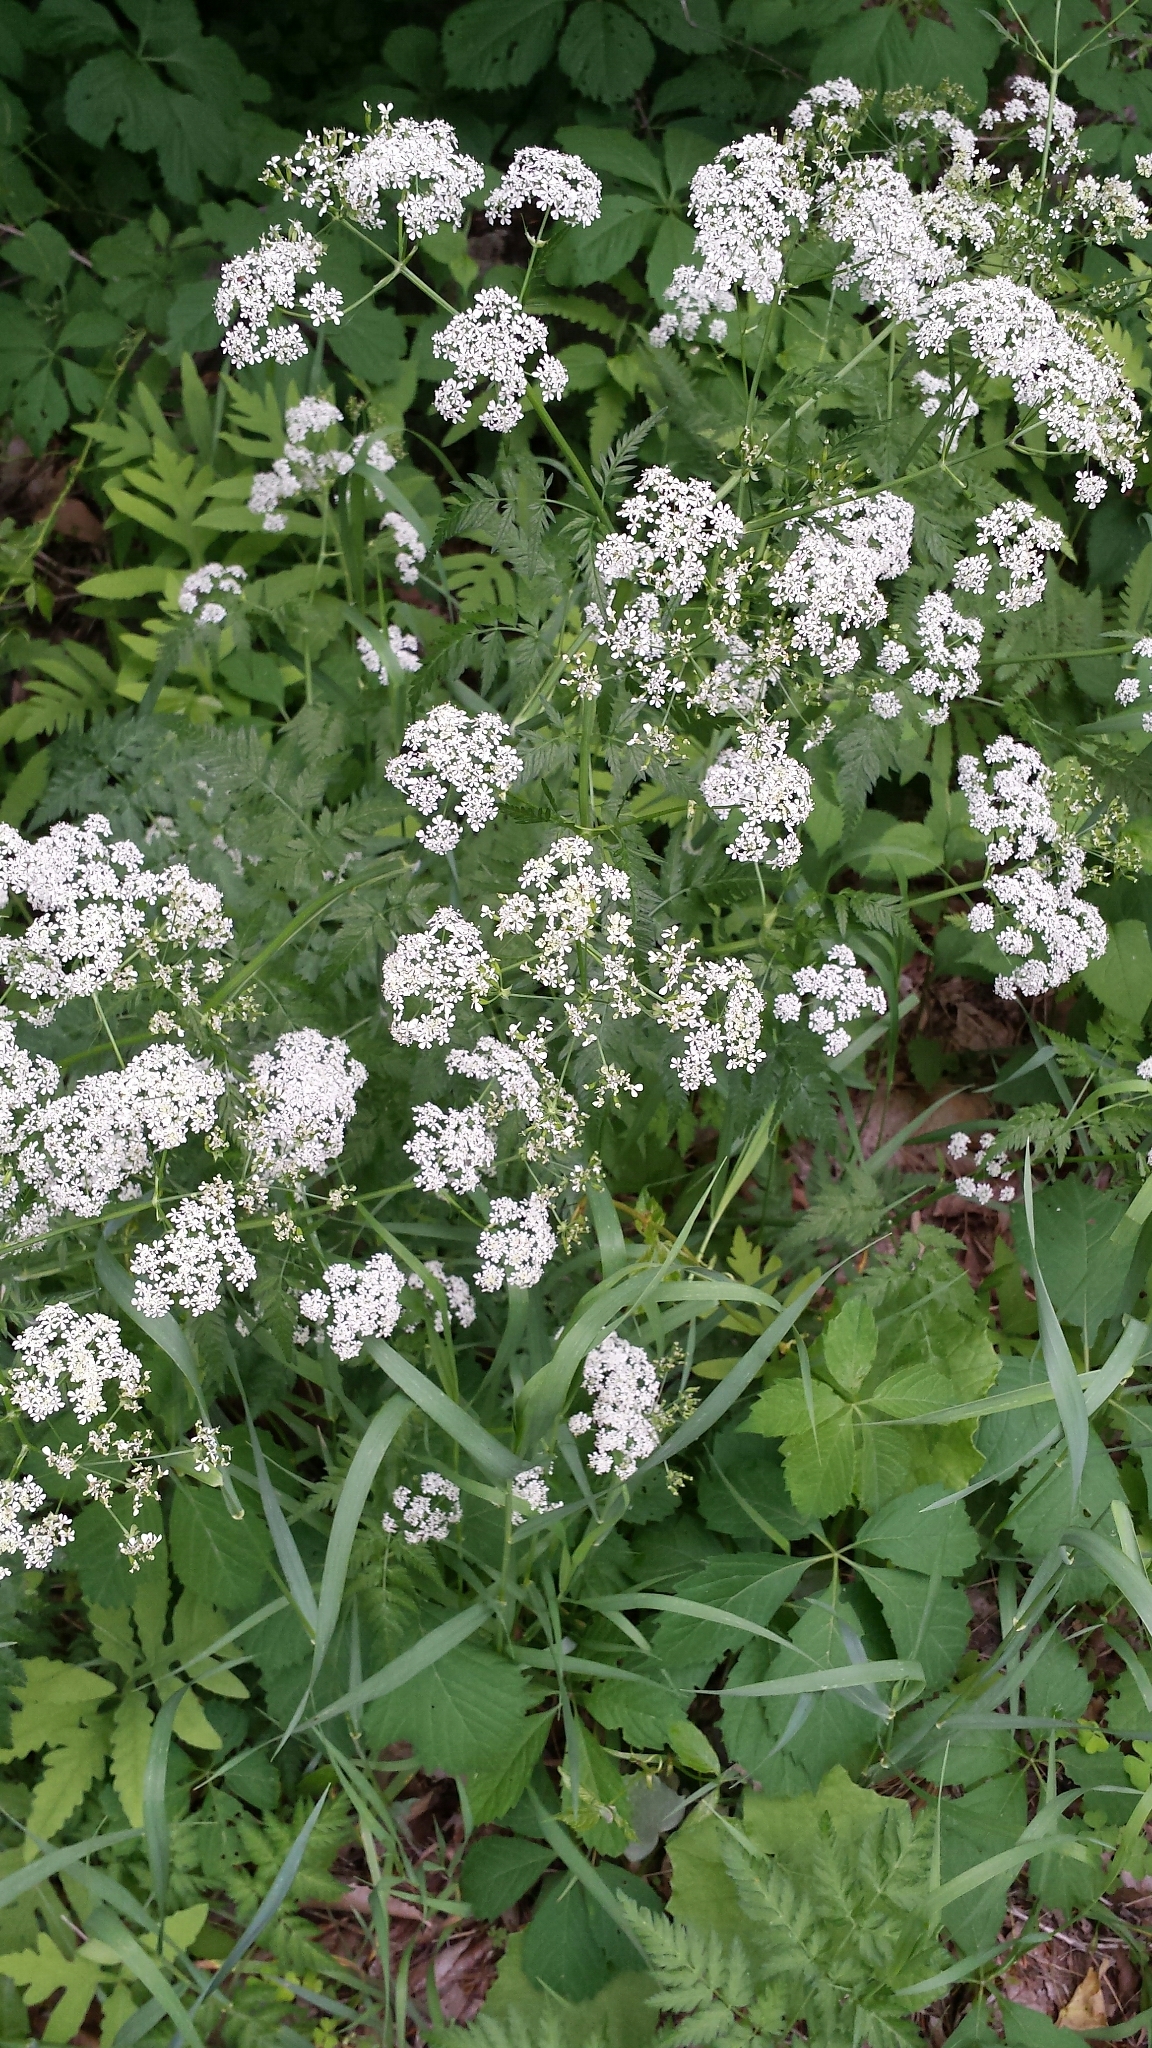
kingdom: Plantae
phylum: Tracheophyta
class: Magnoliopsida
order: Apiales
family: Apiaceae
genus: Anthriscus
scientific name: Anthriscus sylvestris
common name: Cow parsley
